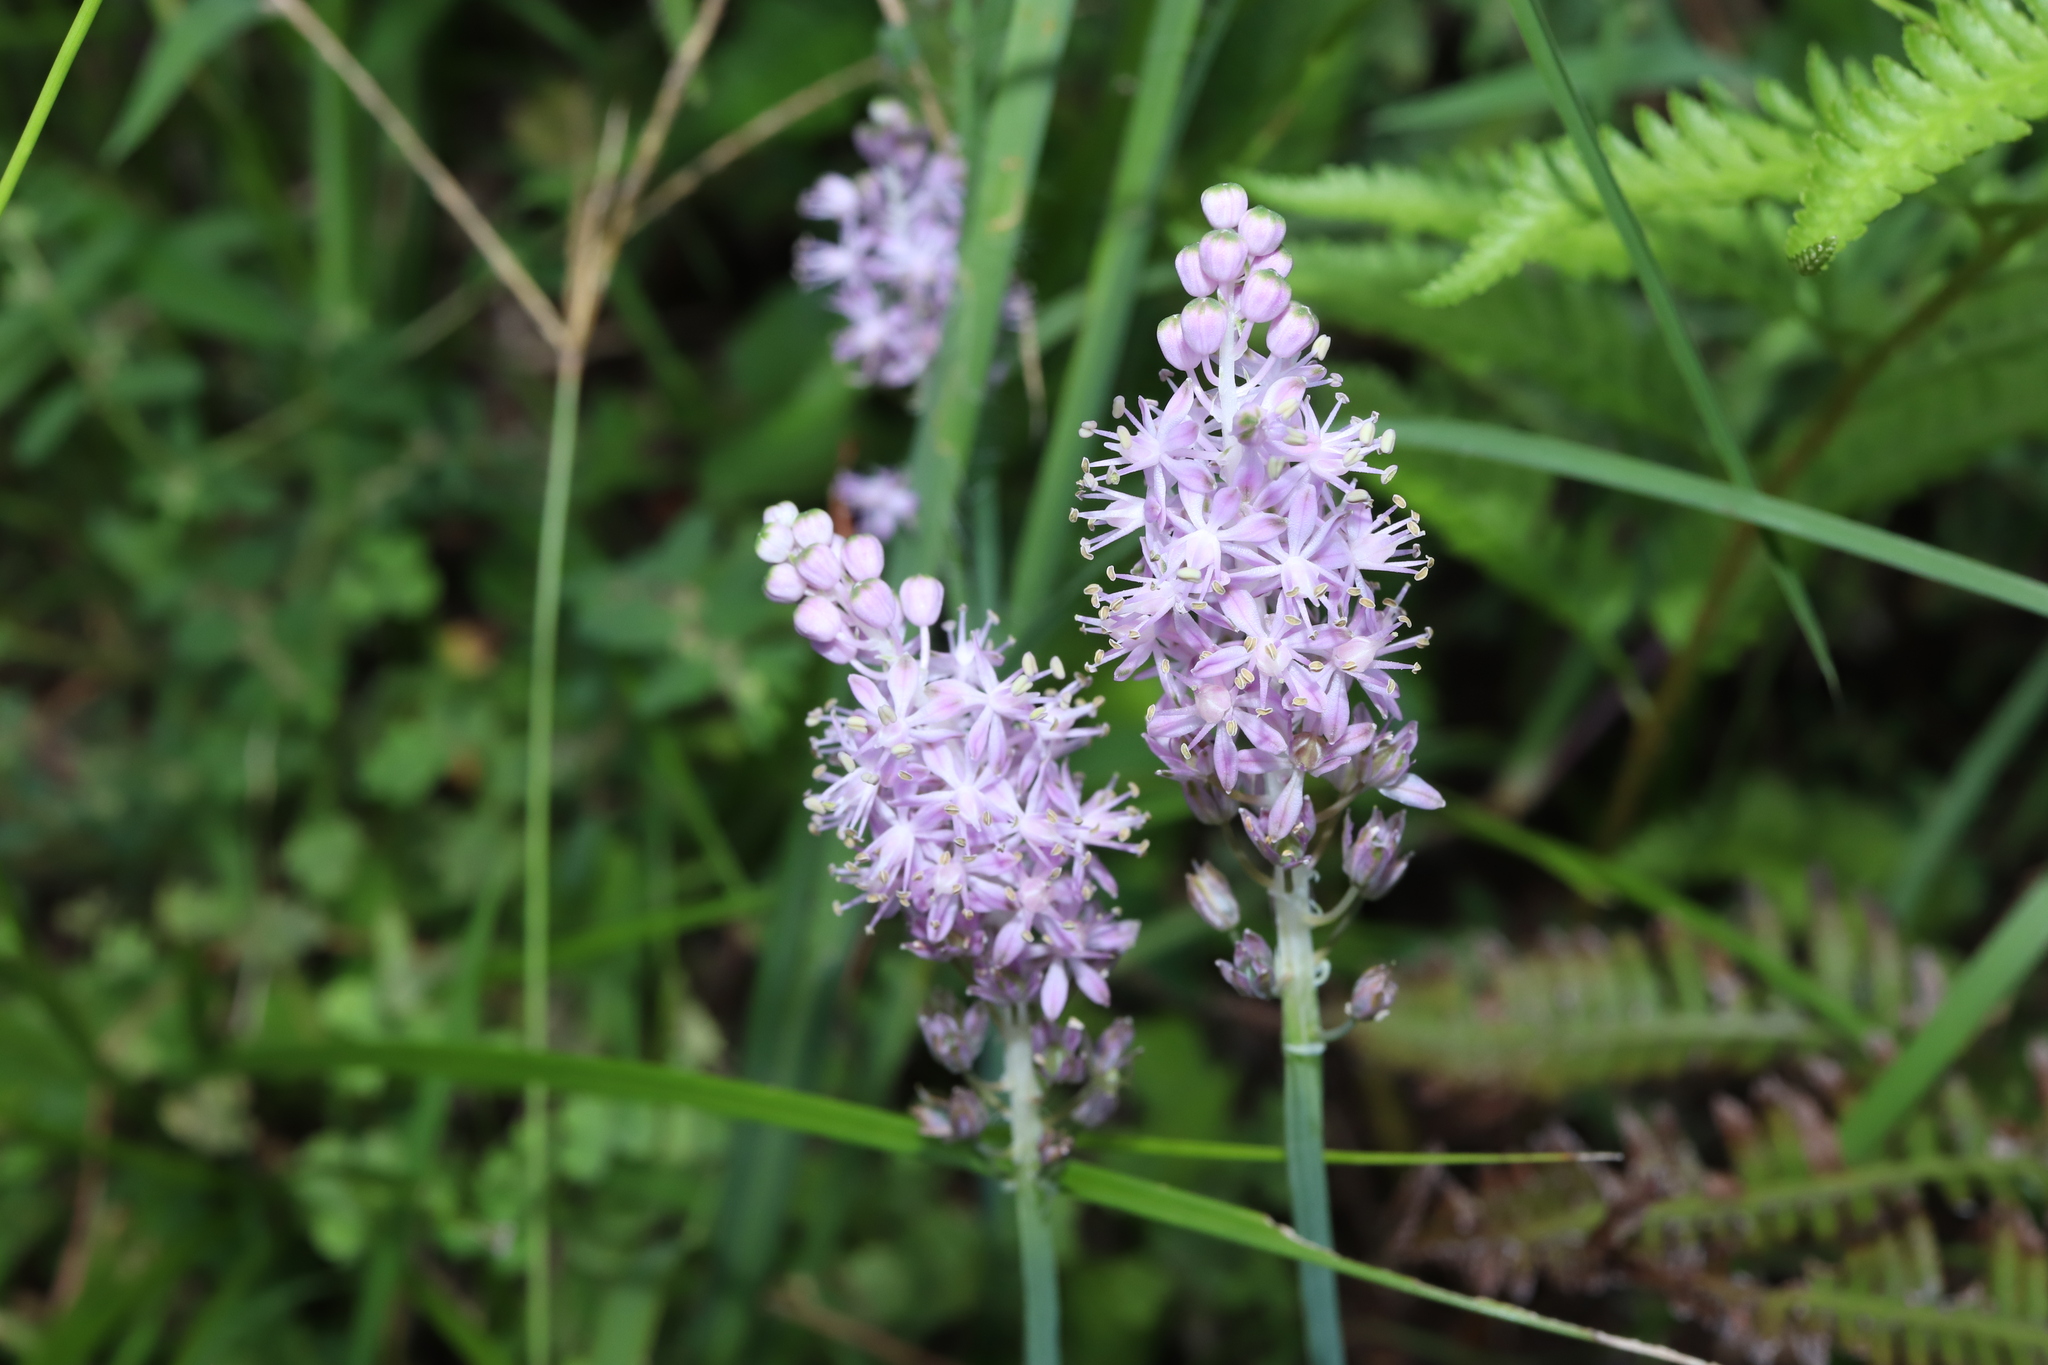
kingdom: Plantae
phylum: Tracheophyta
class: Liliopsida
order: Asparagales
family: Asparagaceae
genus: Barnardia
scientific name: Barnardia japonica
